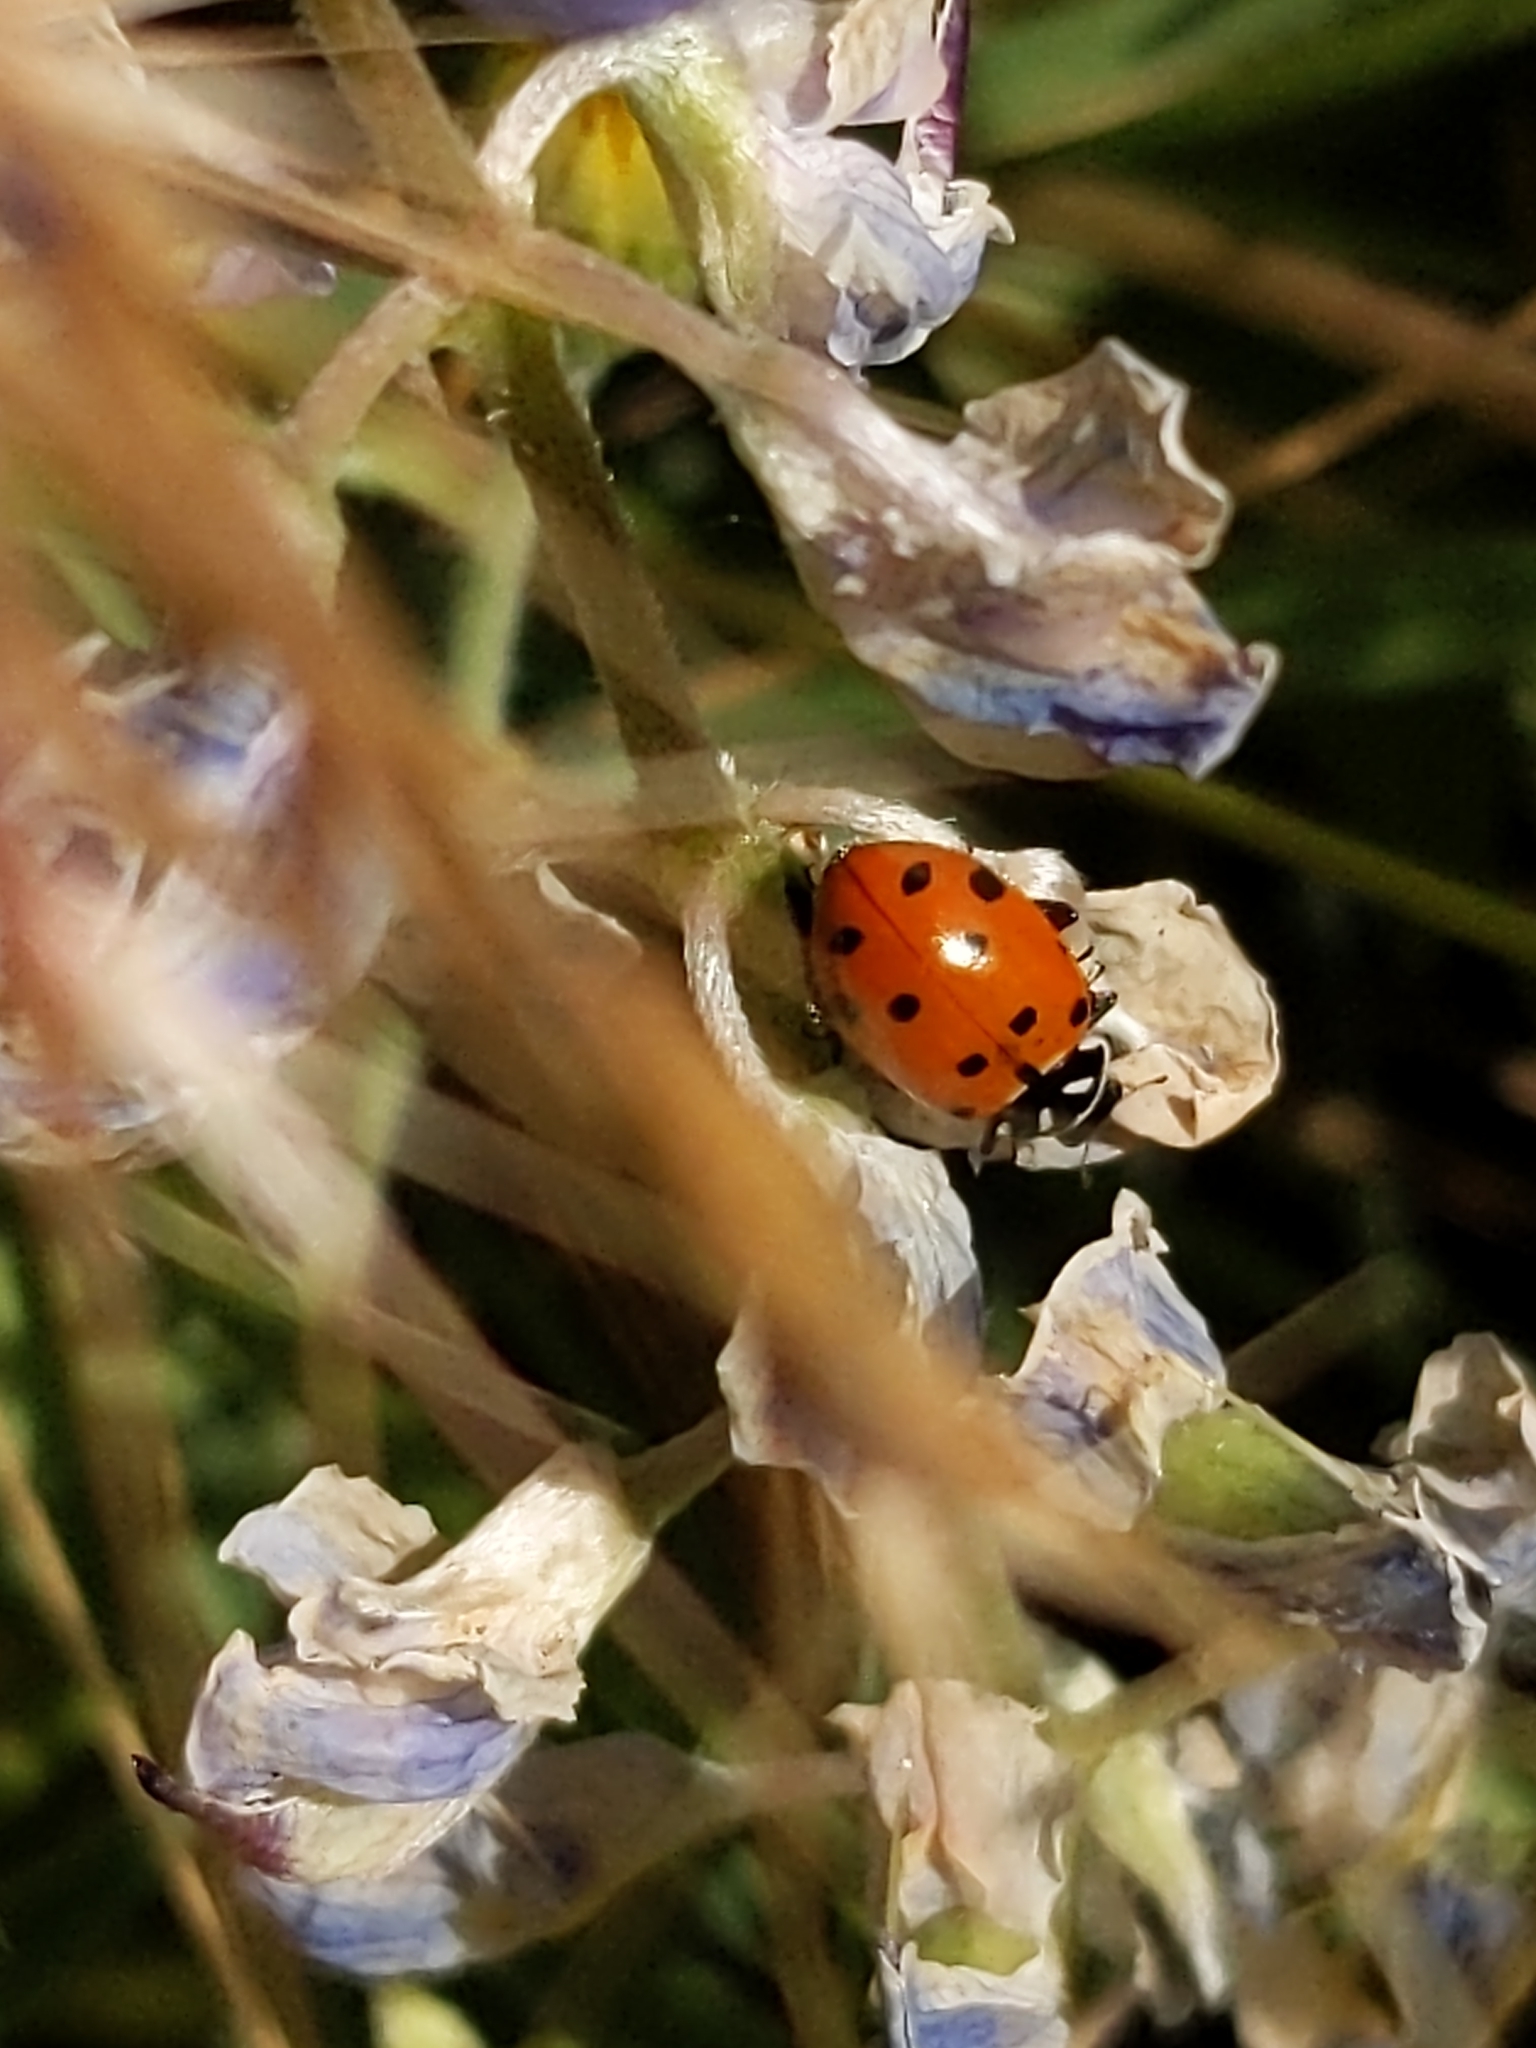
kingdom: Animalia
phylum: Arthropoda
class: Insecta
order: Coleoptera
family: Coccinellidae
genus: Hippodamia
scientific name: Hippodamia convergens
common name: Convergent lady beetle
